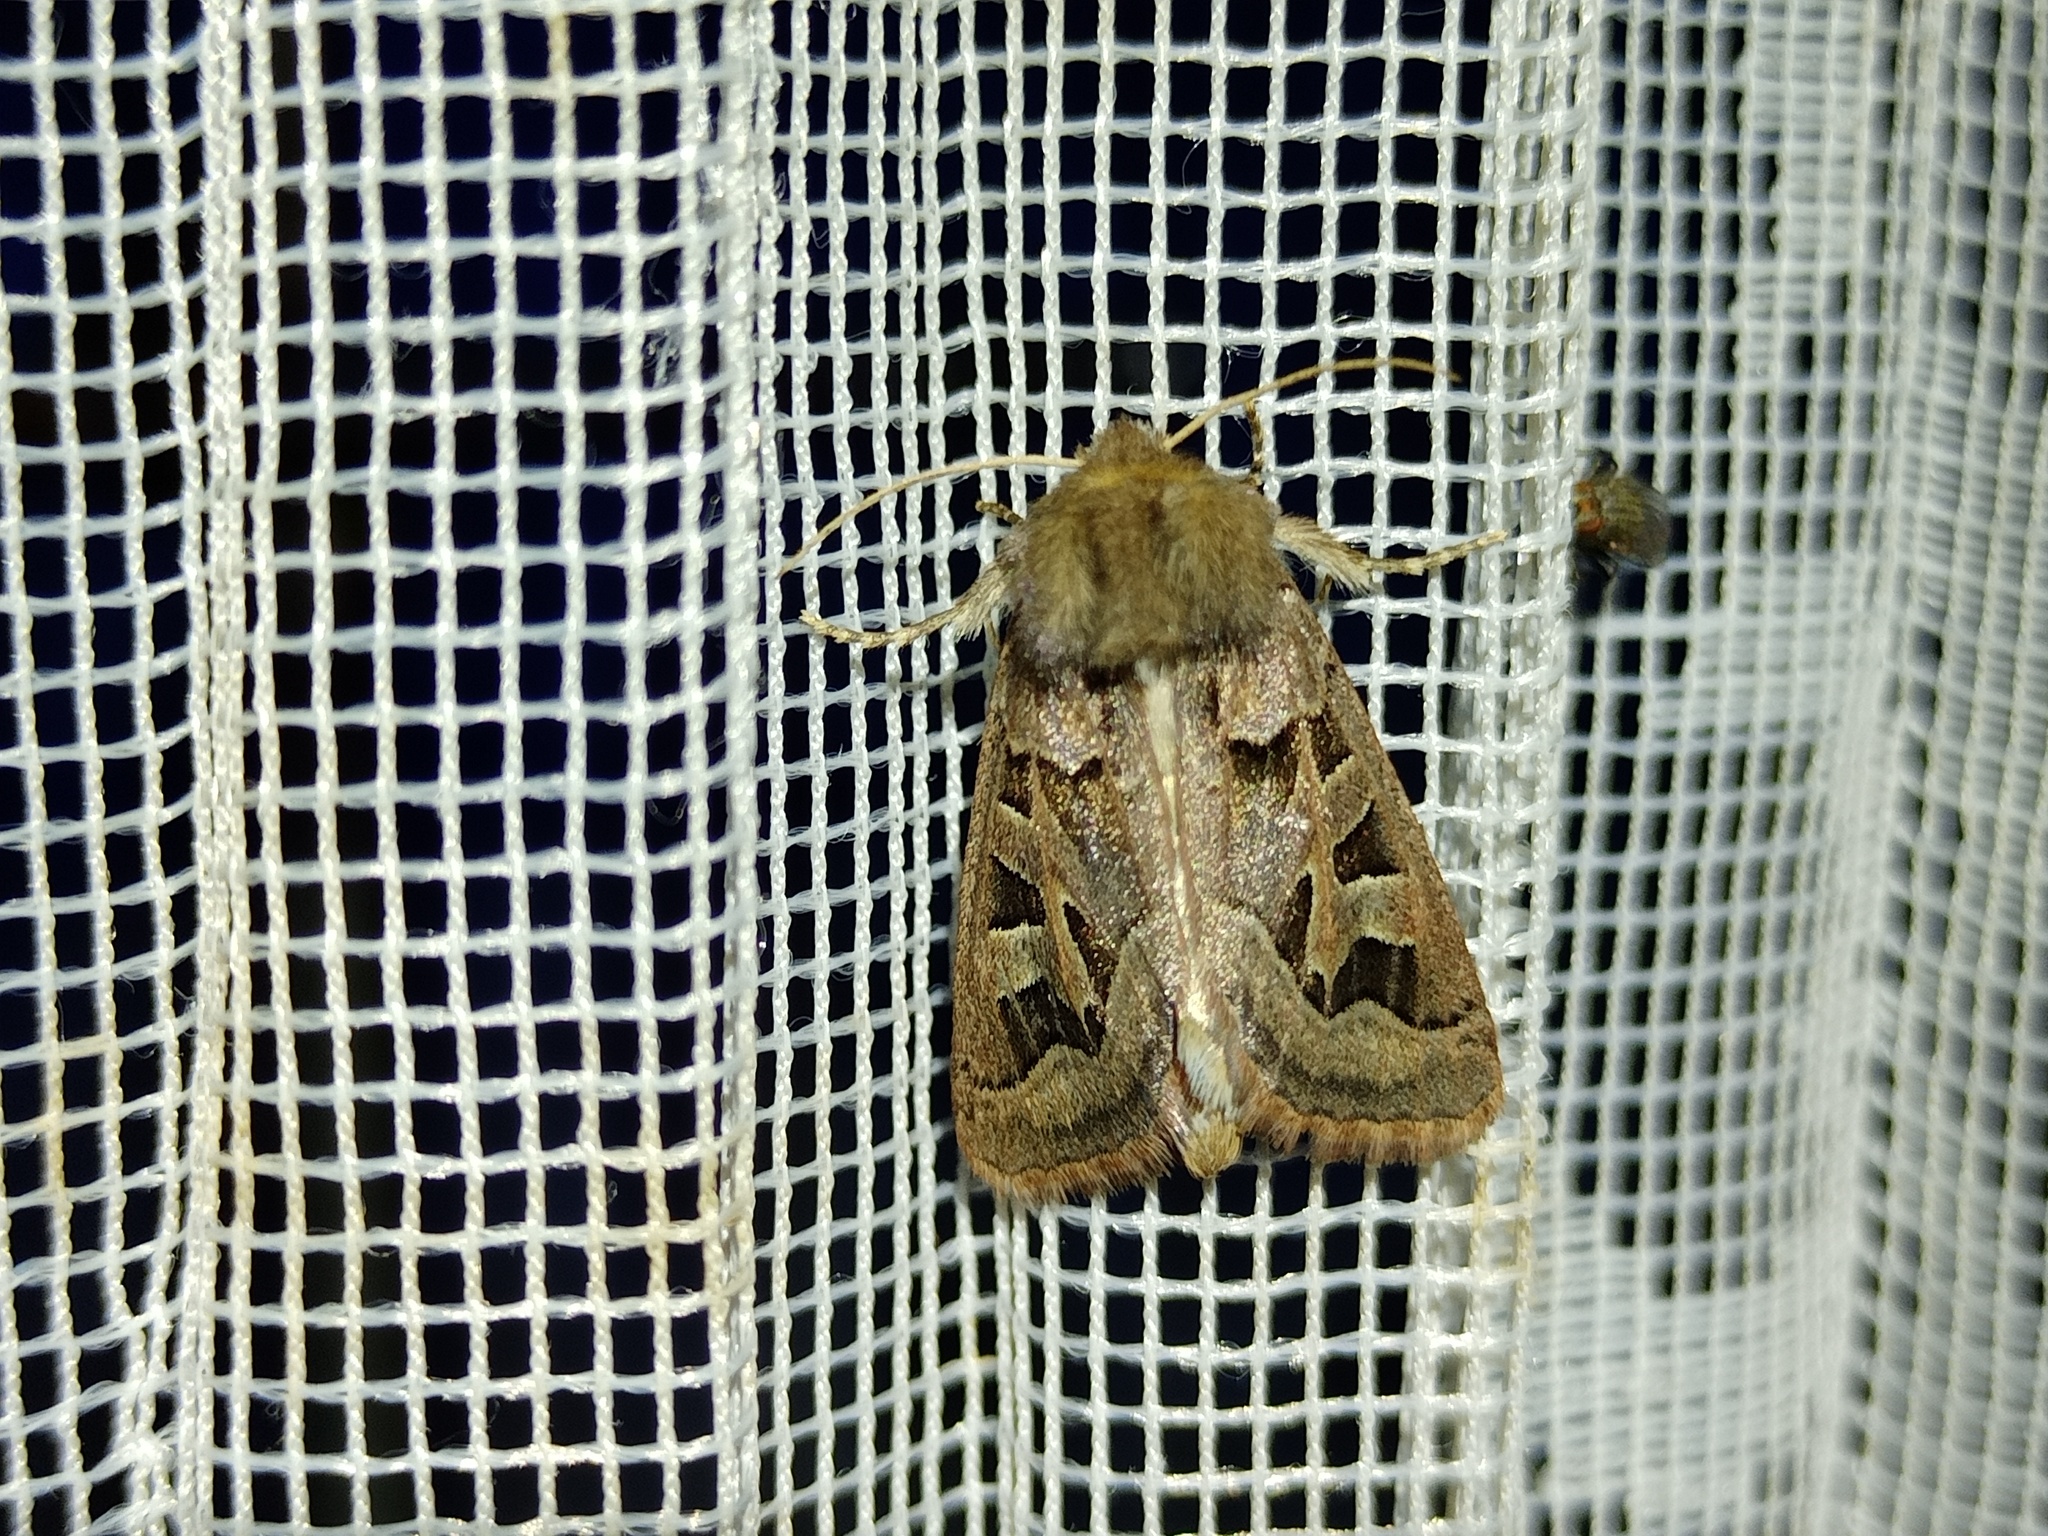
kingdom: Animalia
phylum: Arthropoda
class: Insecta
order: Lepidoptera
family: Noctuidae
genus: Episema
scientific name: Episema glaucina
